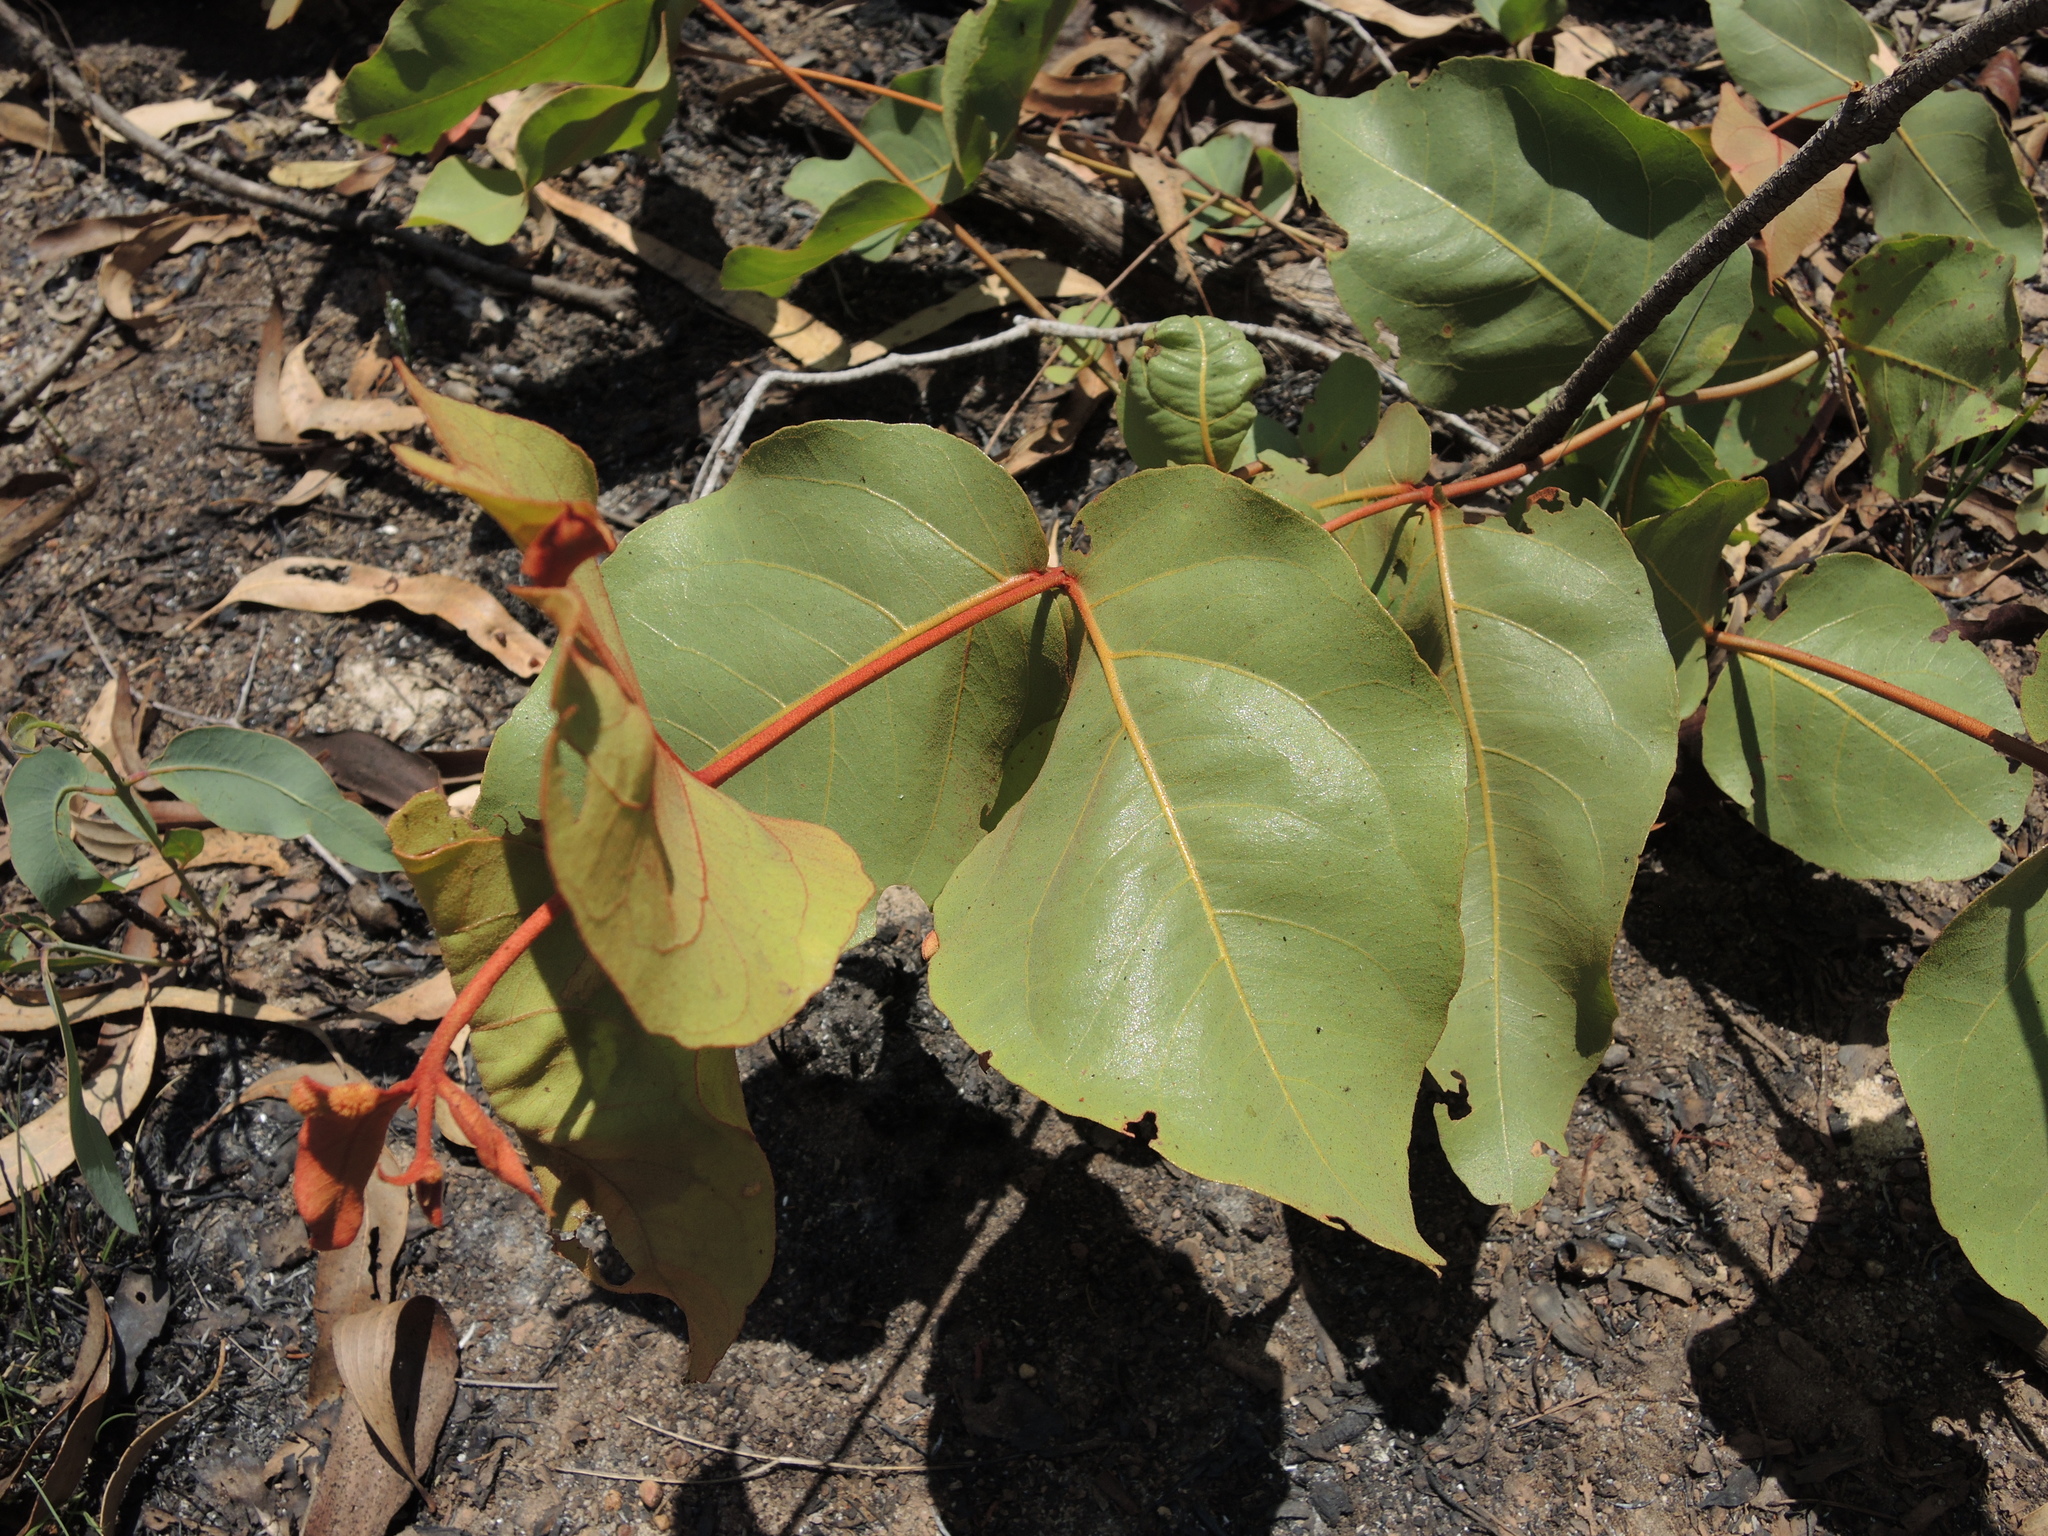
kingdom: Plantae
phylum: Tracheophyta
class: Magnoliopsida
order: Myrtales
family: Myrtaceae
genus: Corymbia
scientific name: Corymbia ferruginea
